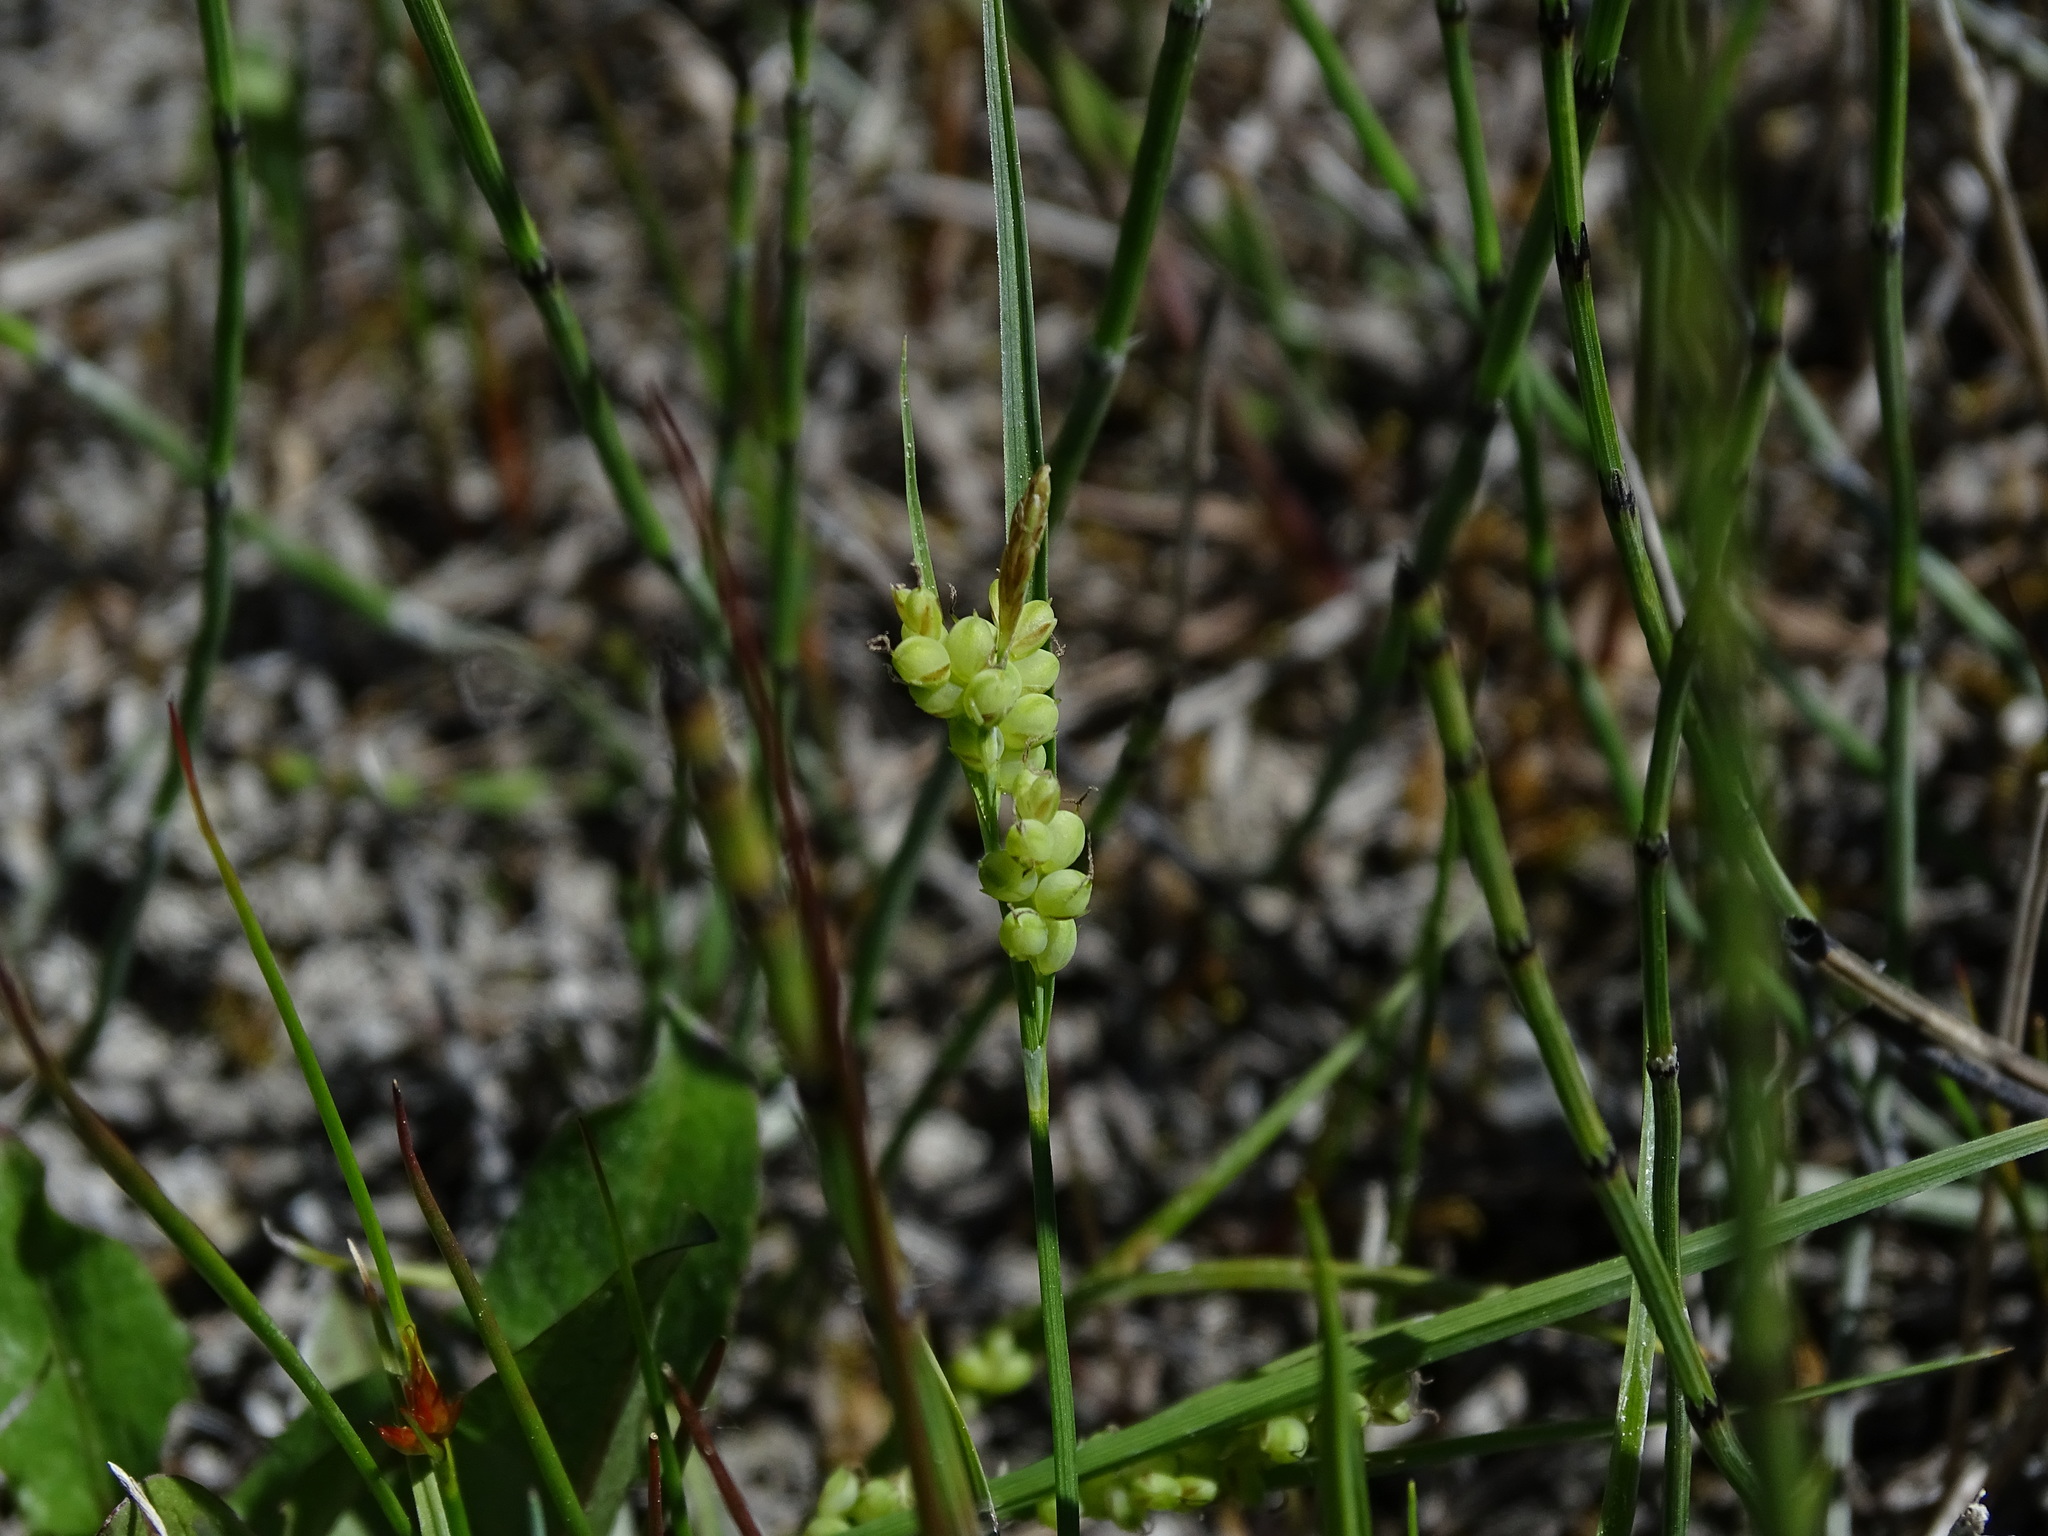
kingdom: Plantae
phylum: Tracheophyta
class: Liliopsida
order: Poales
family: Cyperaceae
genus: Carex
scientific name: Carex aurea
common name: Golden sedge
